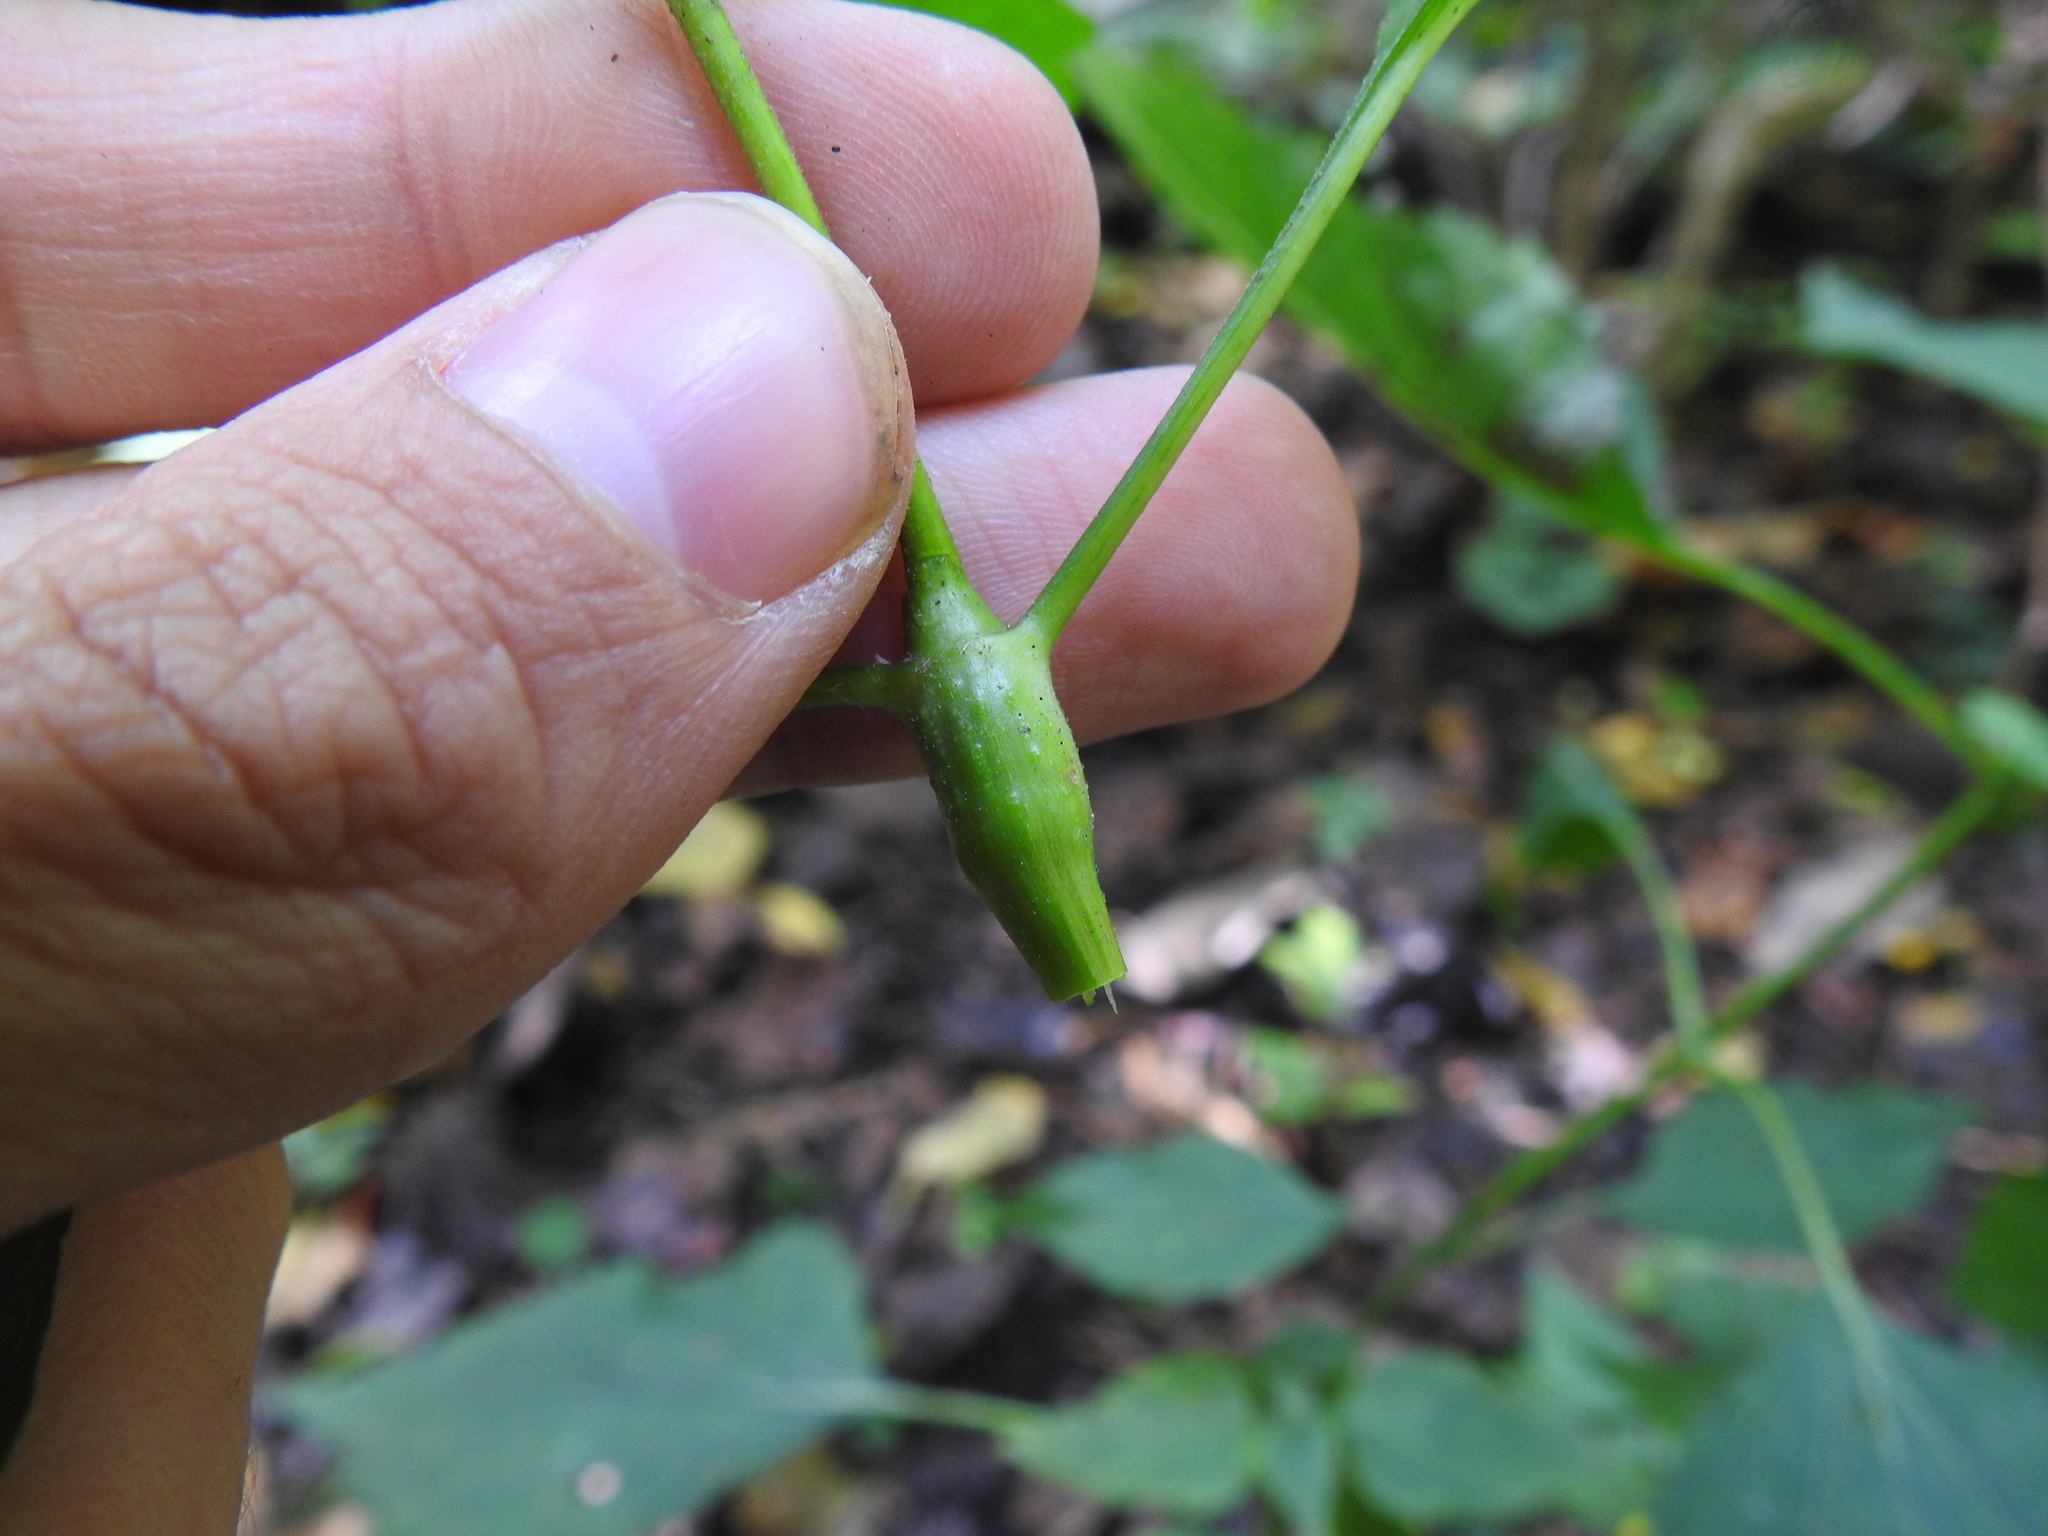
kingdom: Animalia
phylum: Arthropoda
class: Insecta
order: Diptera
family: Cecidomyiidae
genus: Neolasioptera
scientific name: Neolasioptera eupatorii
